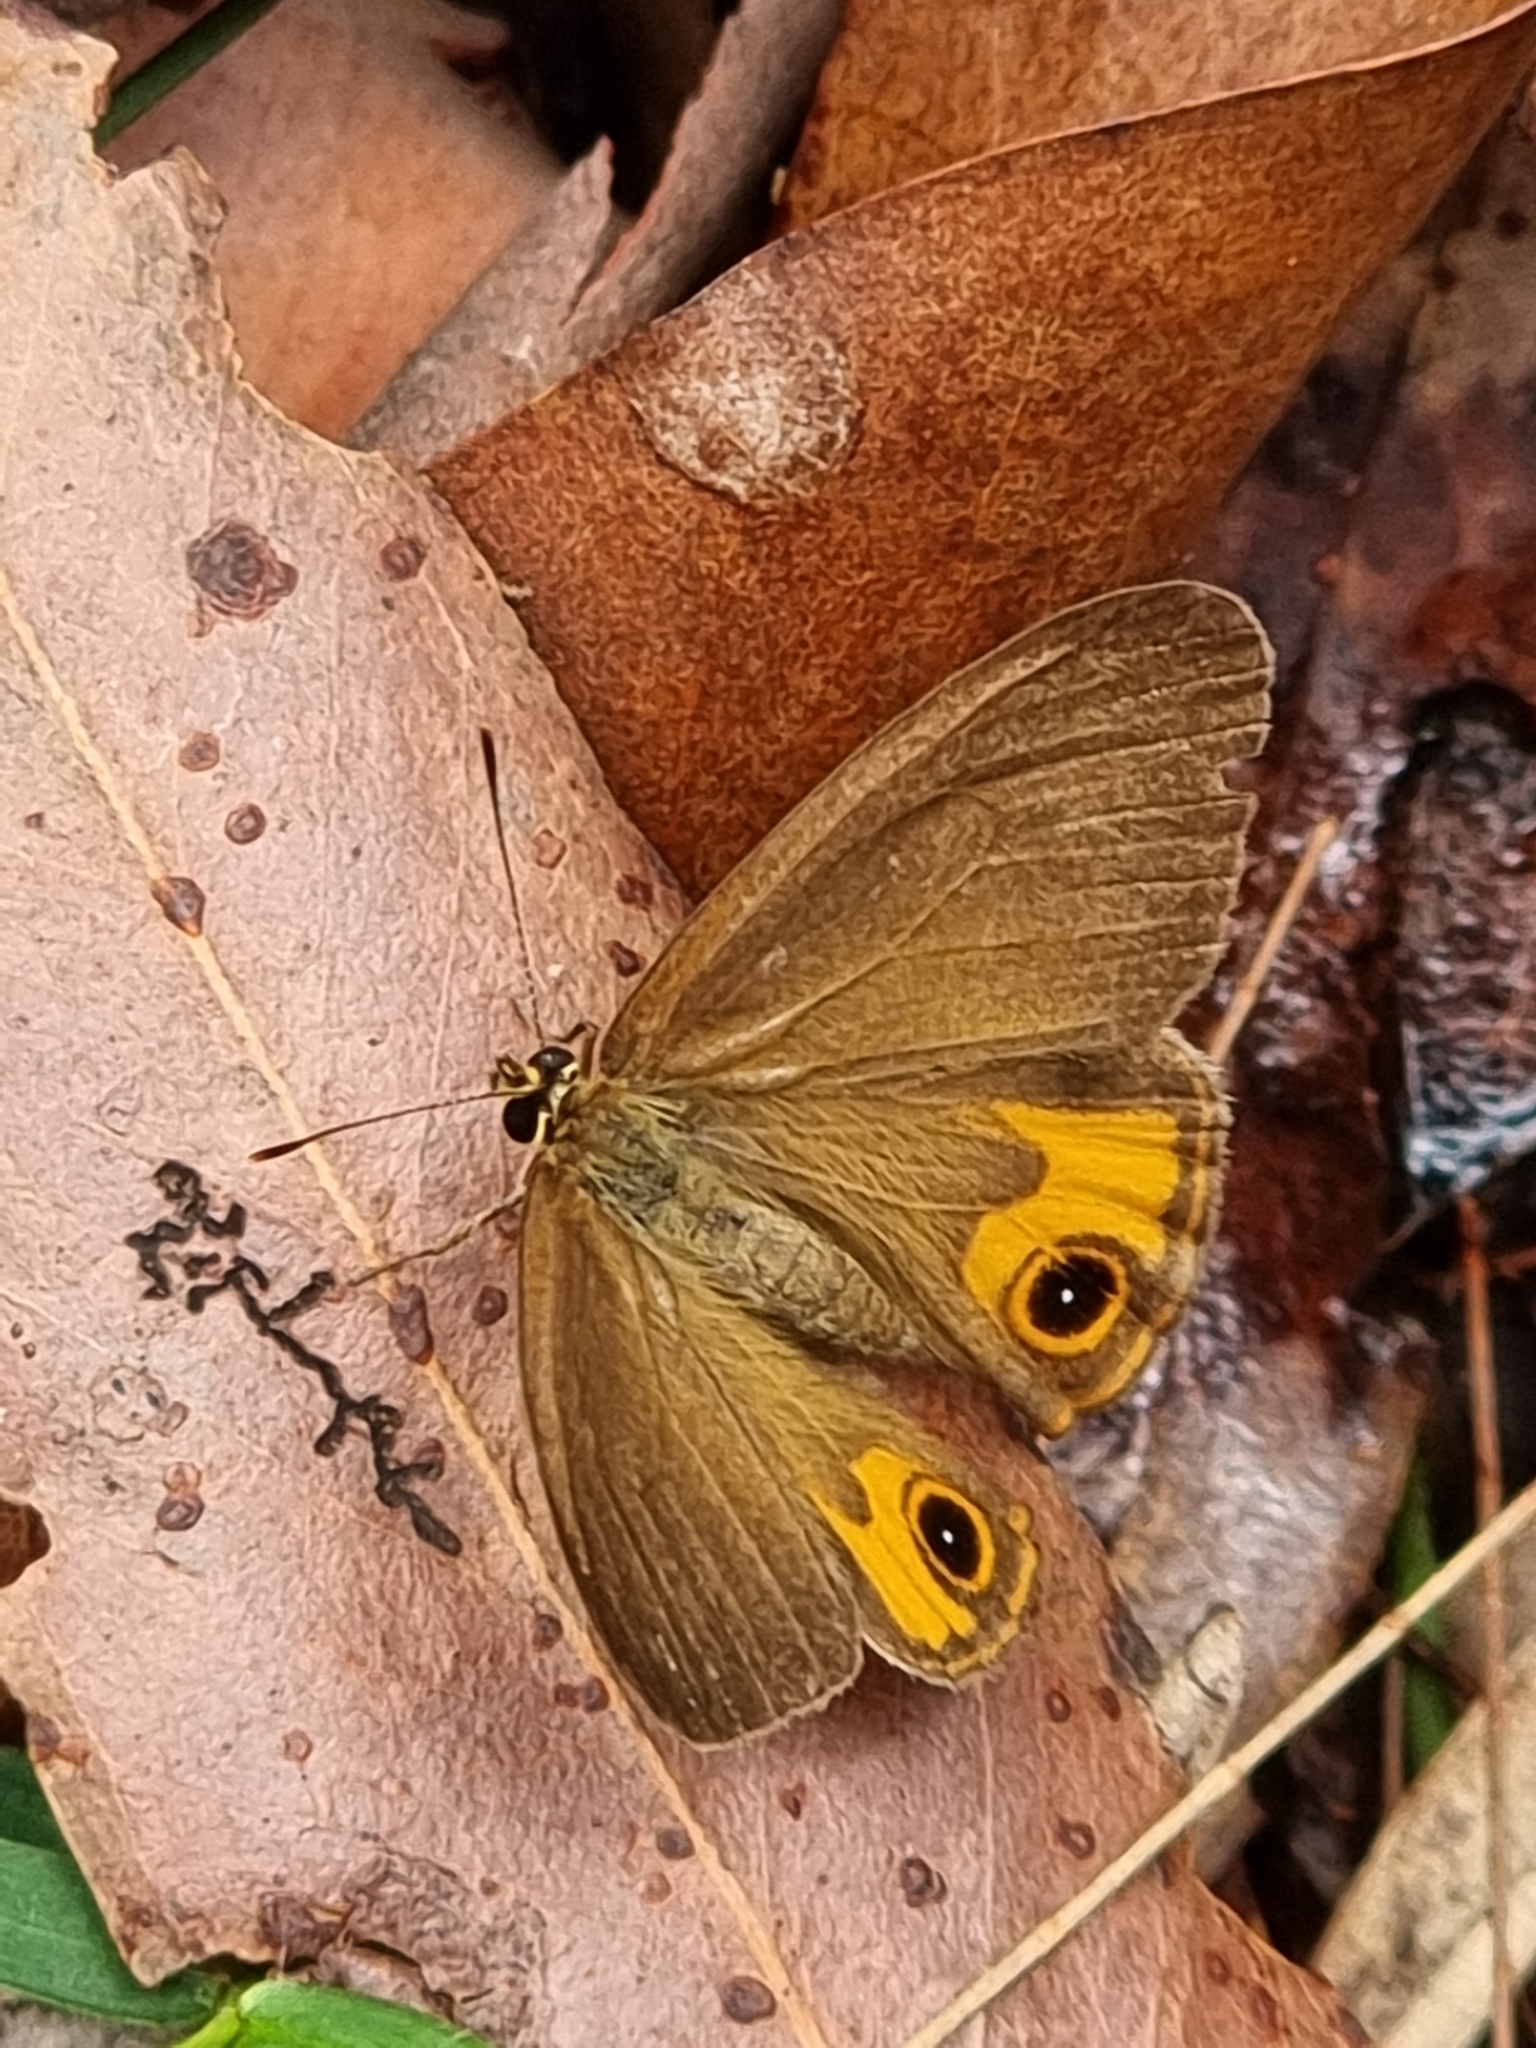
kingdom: Animalia
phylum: Arthropoda
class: Insecta
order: Lepidoptera
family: Nymphalidae
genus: Hypocysta
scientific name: Hypocysta metirius
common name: Brown ringlet
